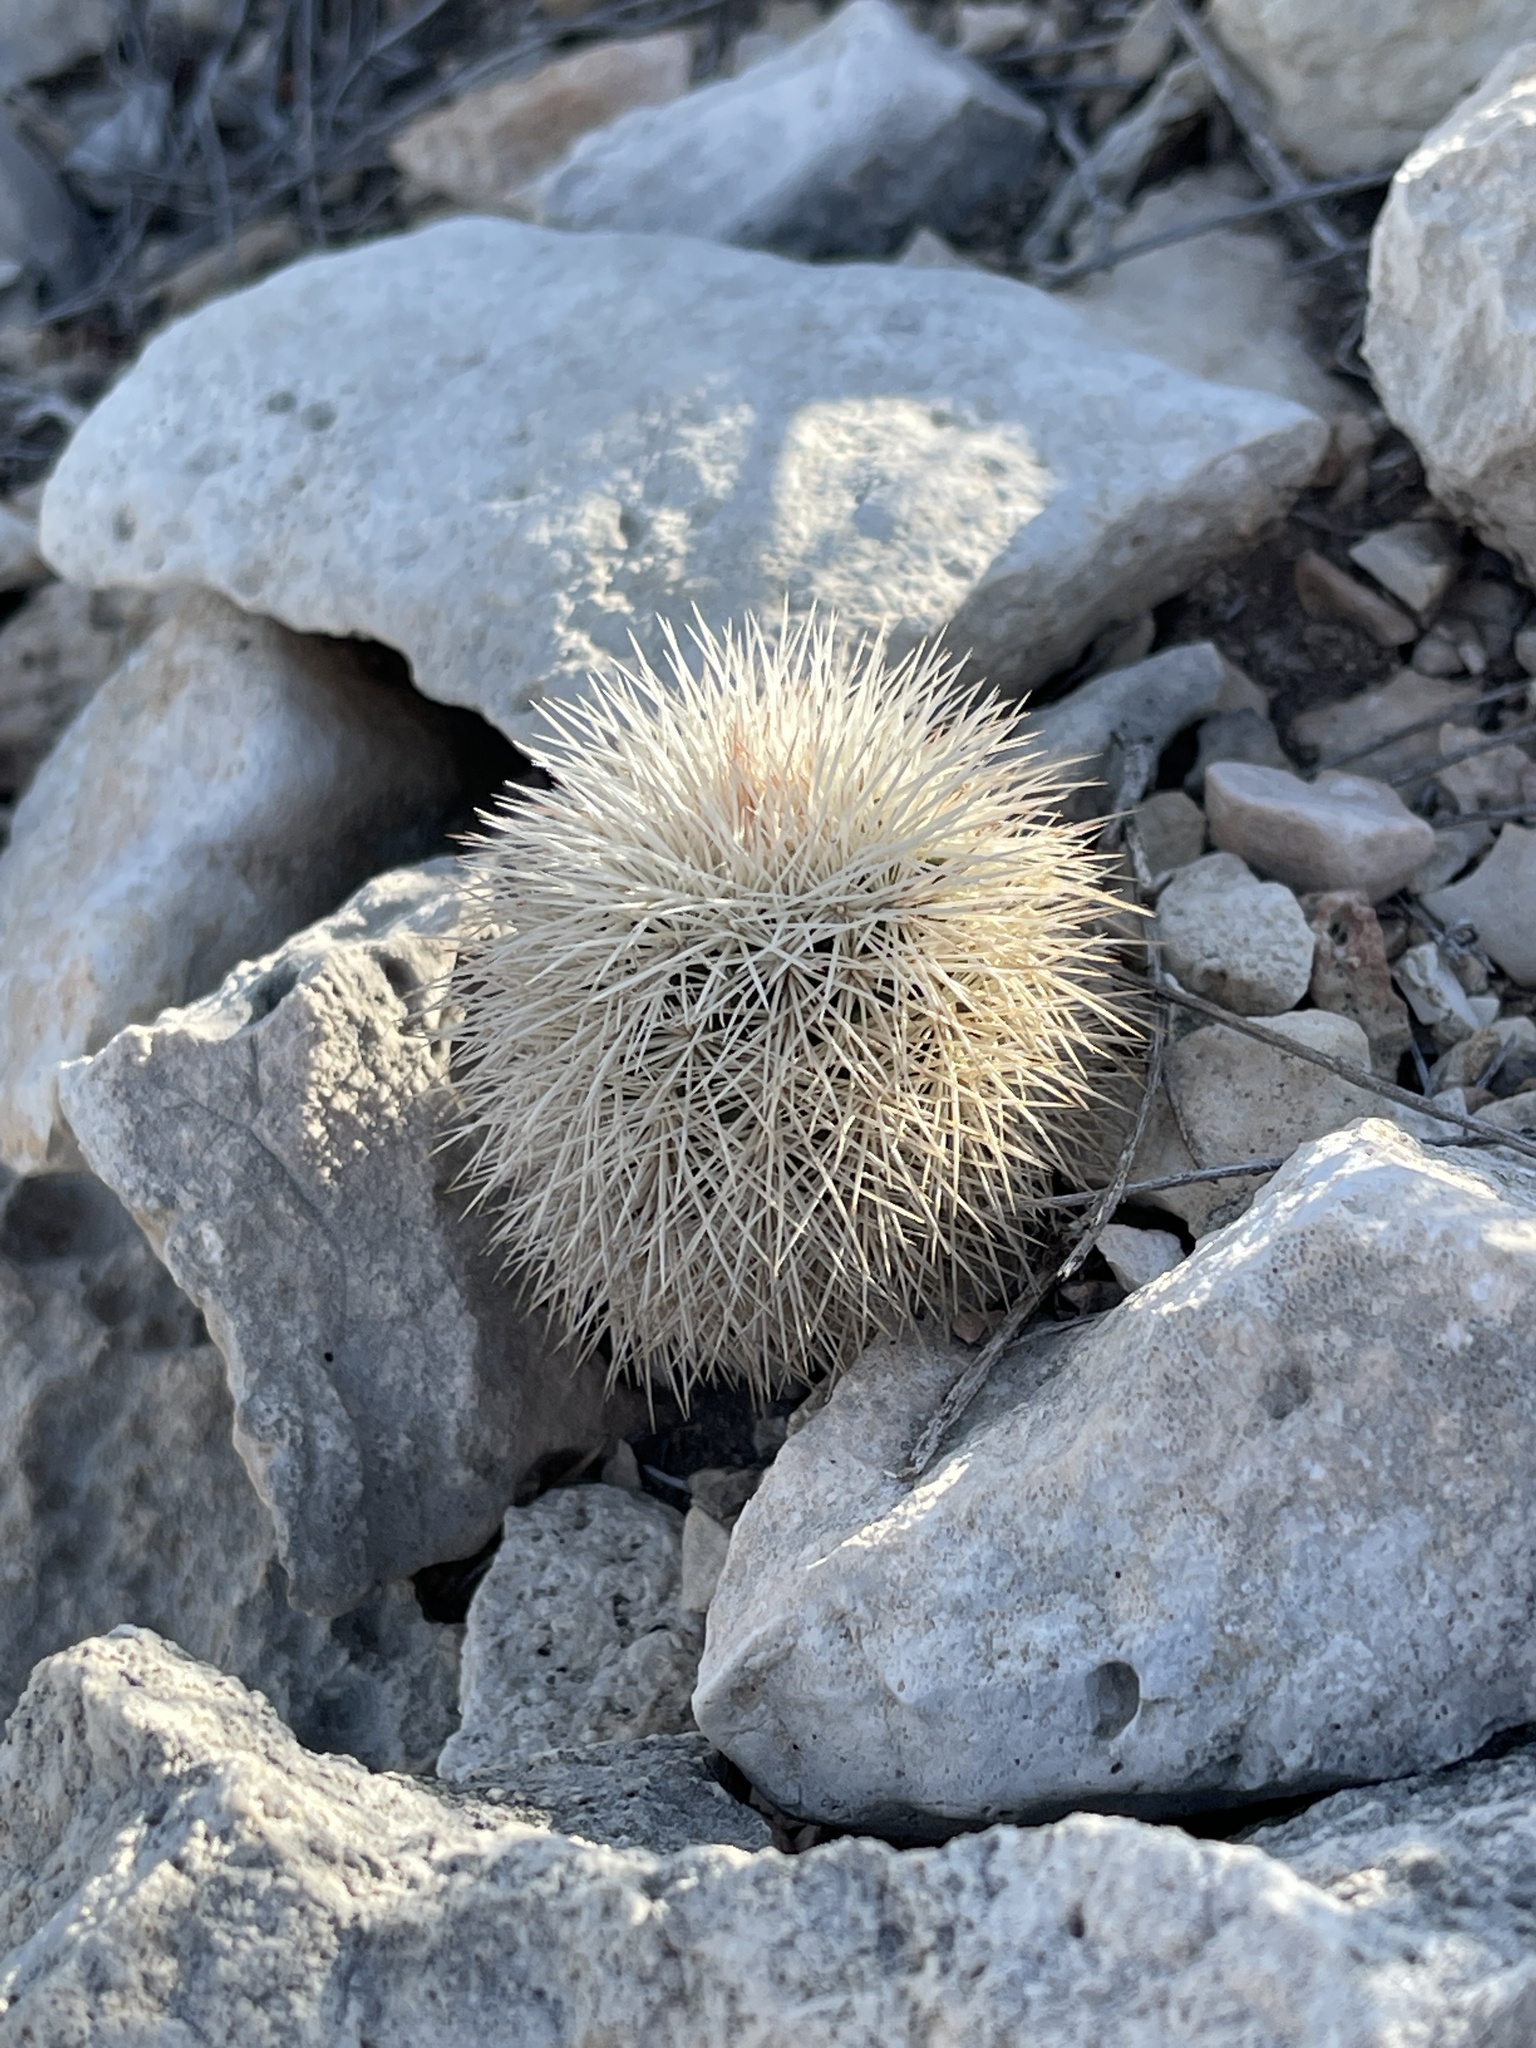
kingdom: Plantae
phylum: Tracheophyta
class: Magnoliopsida
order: Caryophyllales
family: Cactaceae
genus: Echinocereus
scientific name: Echinocereus dasyacanthus
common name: Spiny hedgehog cactus
